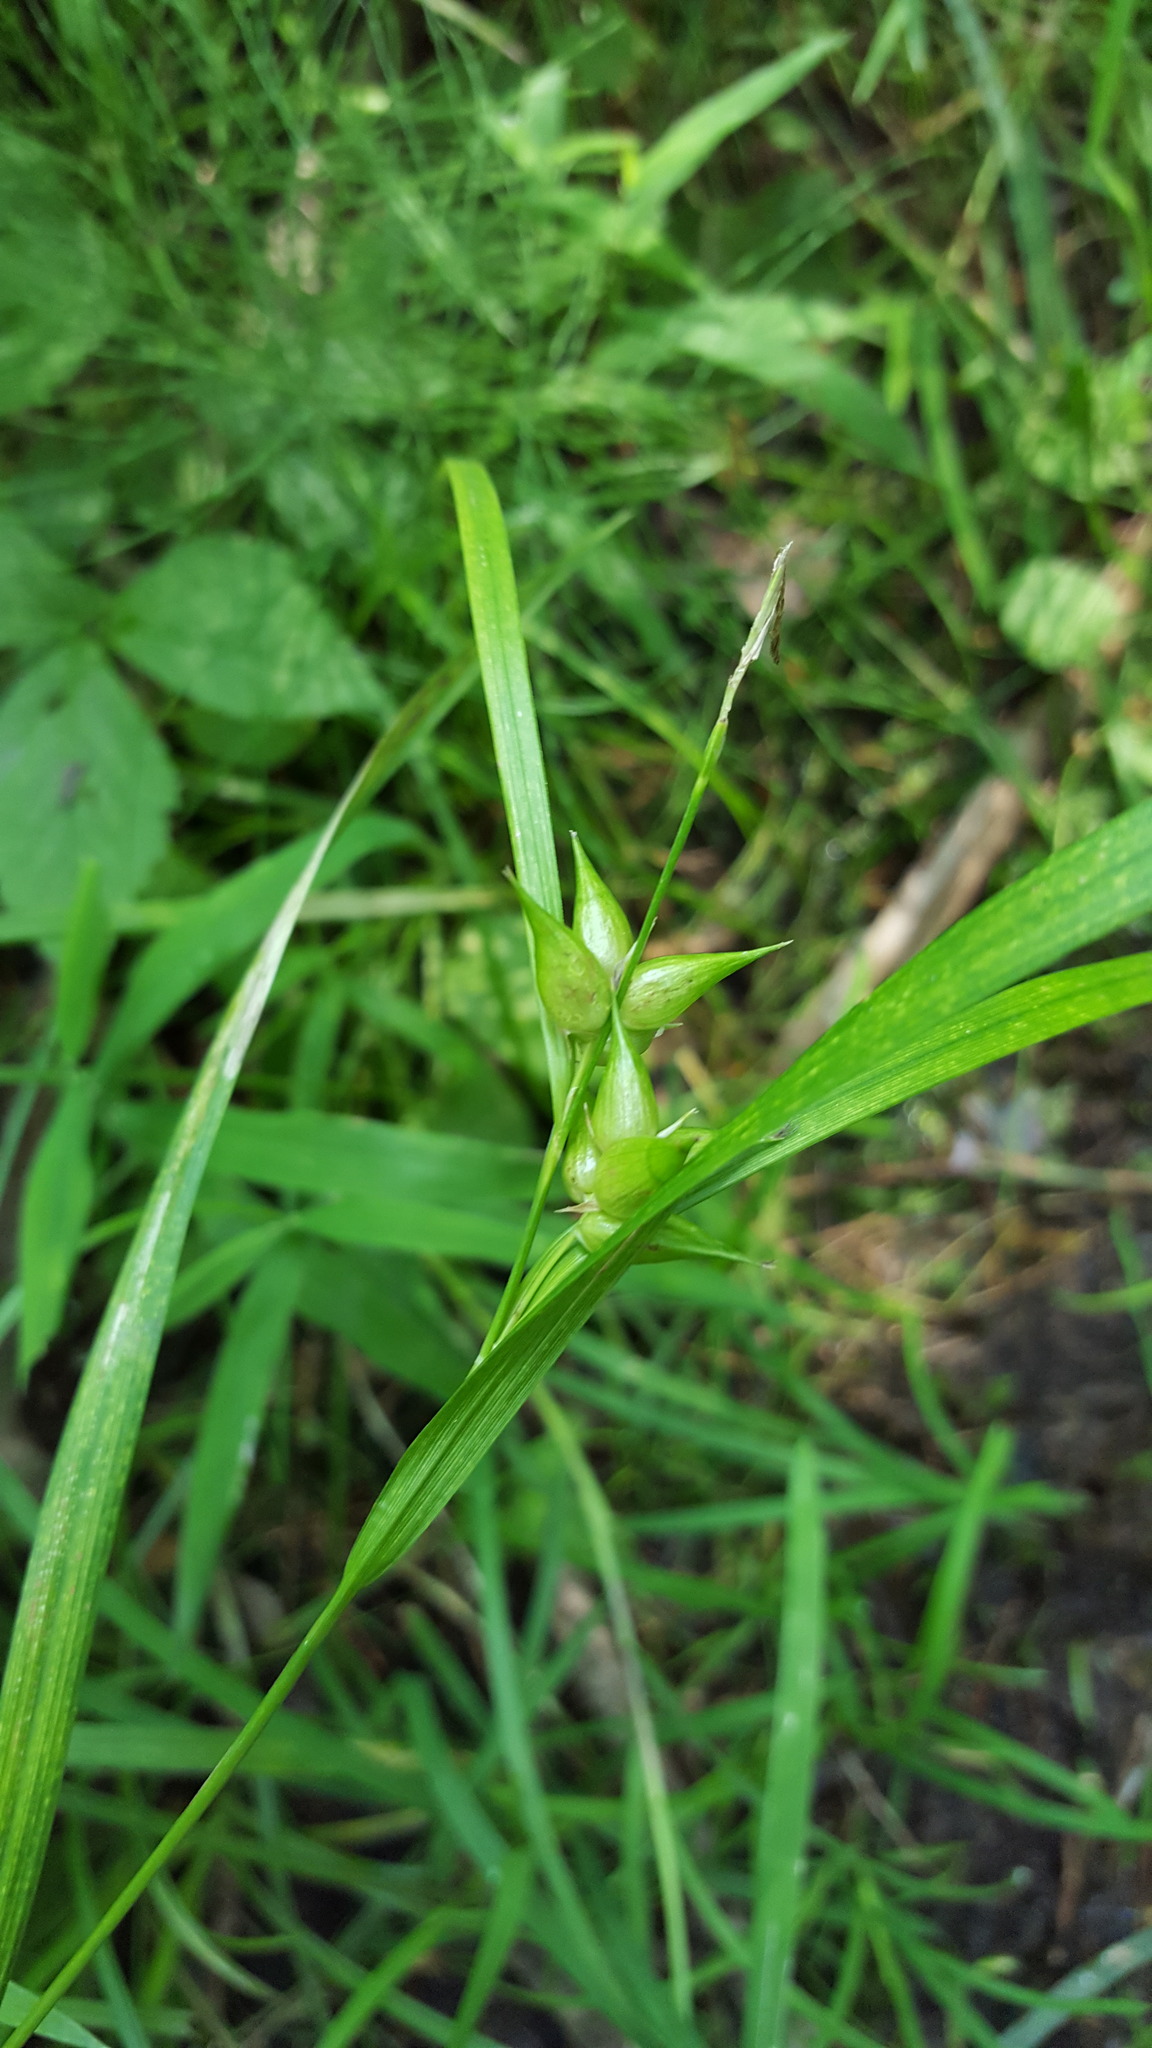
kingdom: Plantae
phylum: Tracheophyta
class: Liliopsida
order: Poales
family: Cyperaceae
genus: Carex
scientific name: Carex intumescens
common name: Greater bladder sedge
